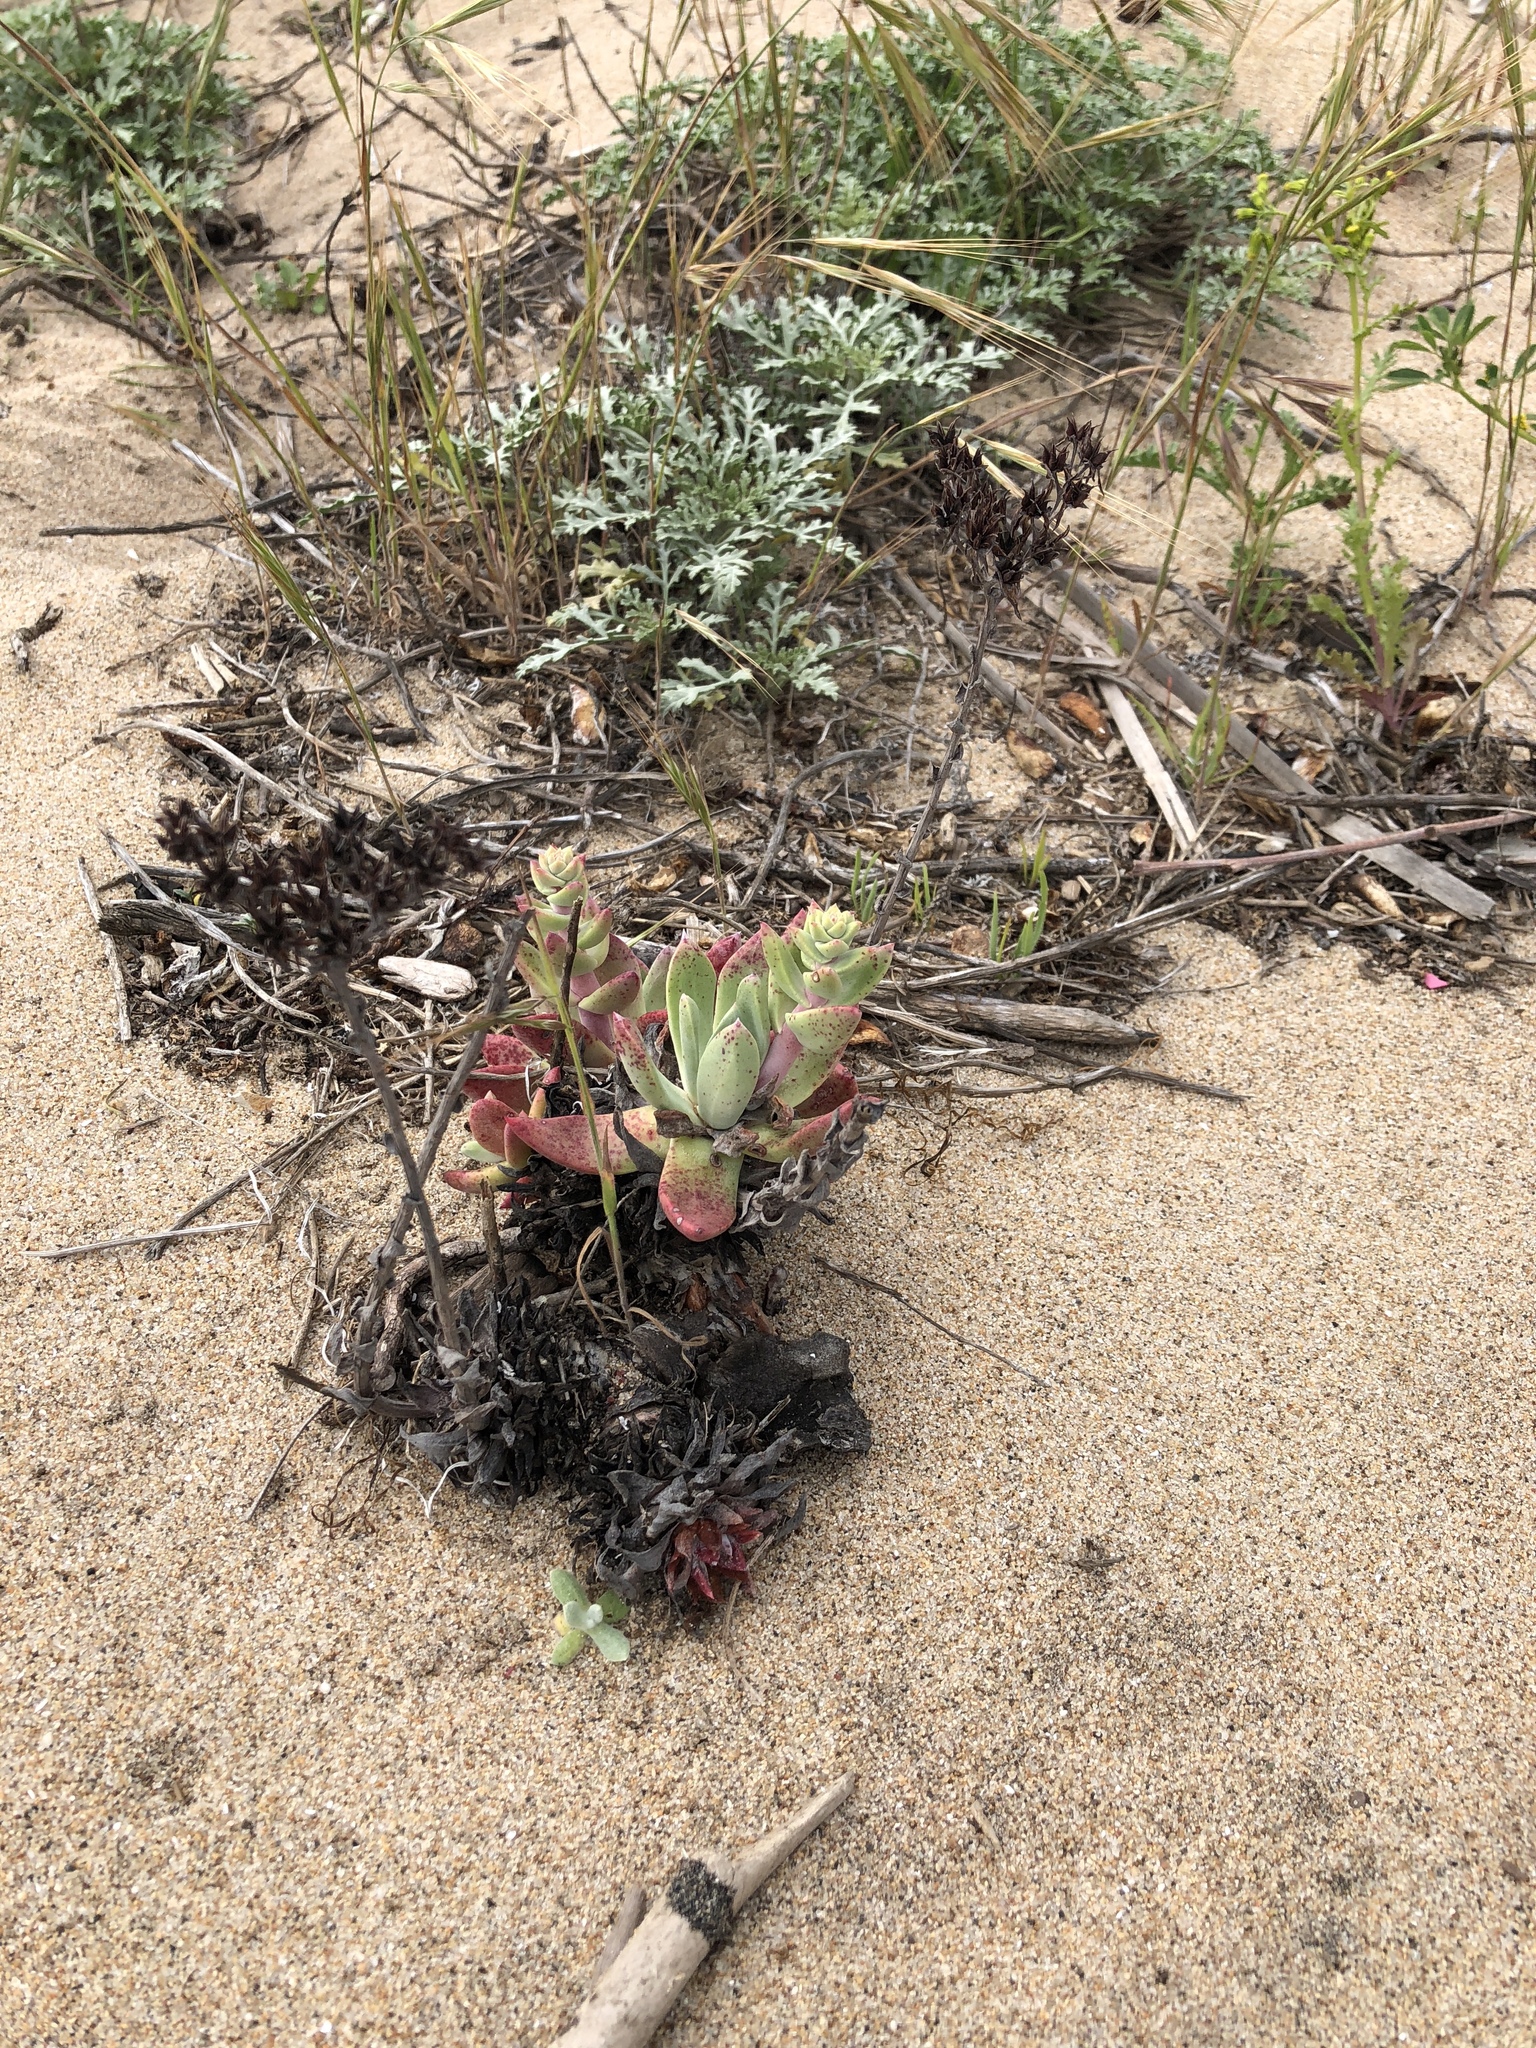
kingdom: Plantae
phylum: Tracheophyta
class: Magnoliopsida
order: Saxifragales
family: Crassulaceae
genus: Dudleya
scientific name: Dudleya caespitosa
